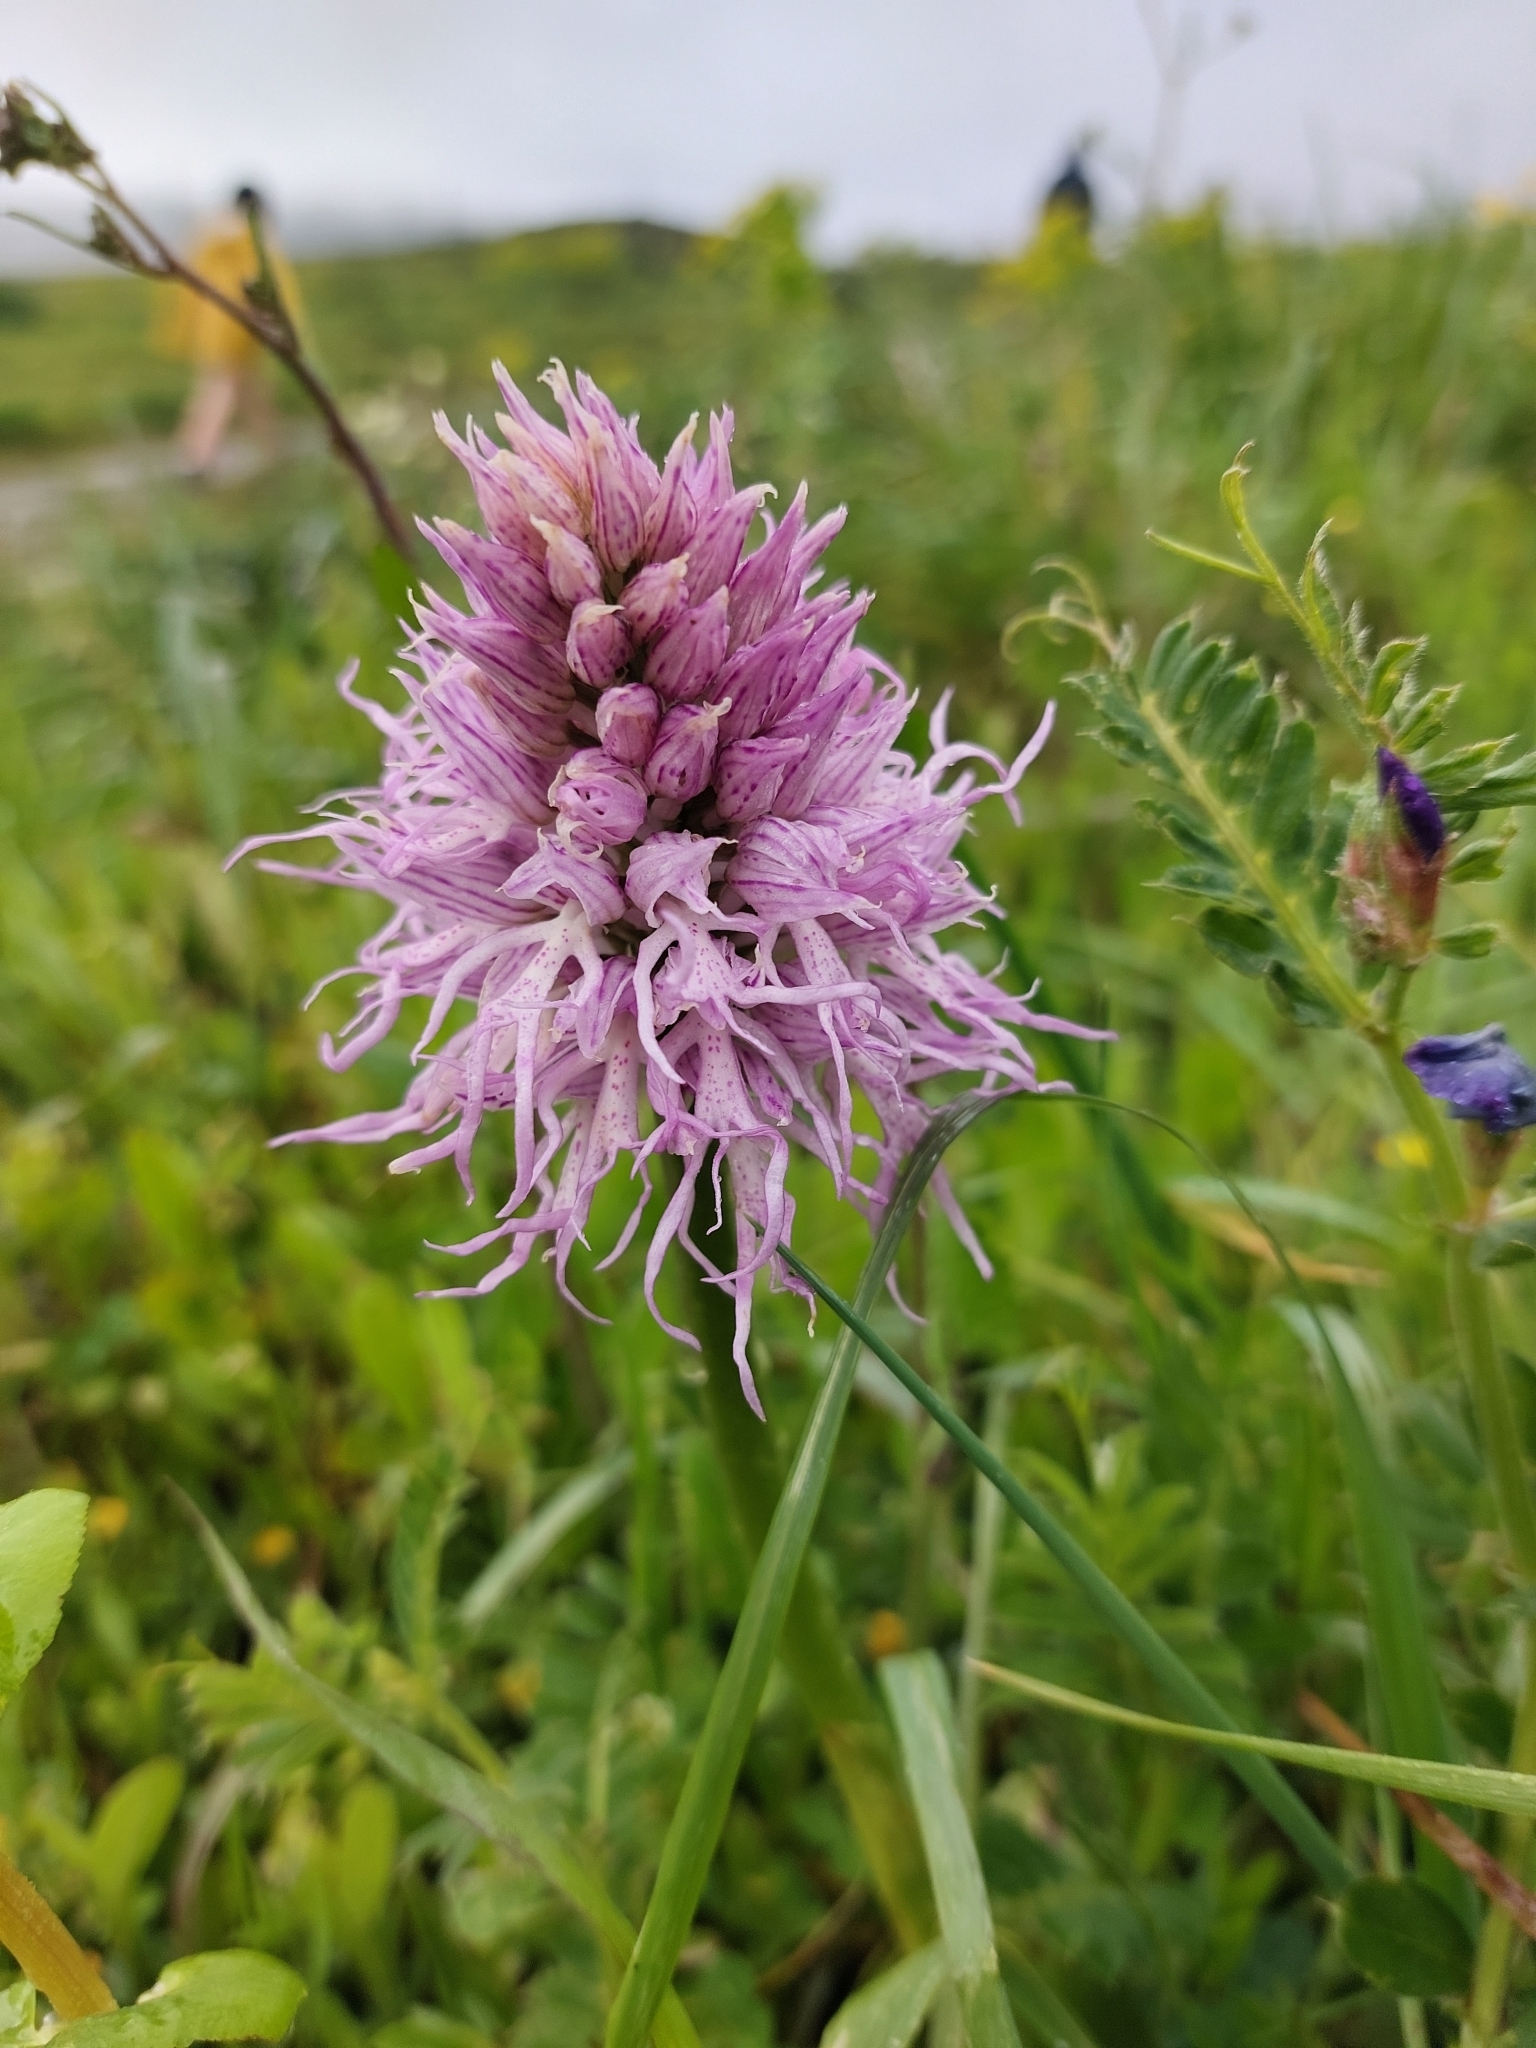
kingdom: Plantae
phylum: Tracheophyta
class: Liliopsida
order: Asparagales
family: Orchidaceae
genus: Orchis
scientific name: Orchis italica
